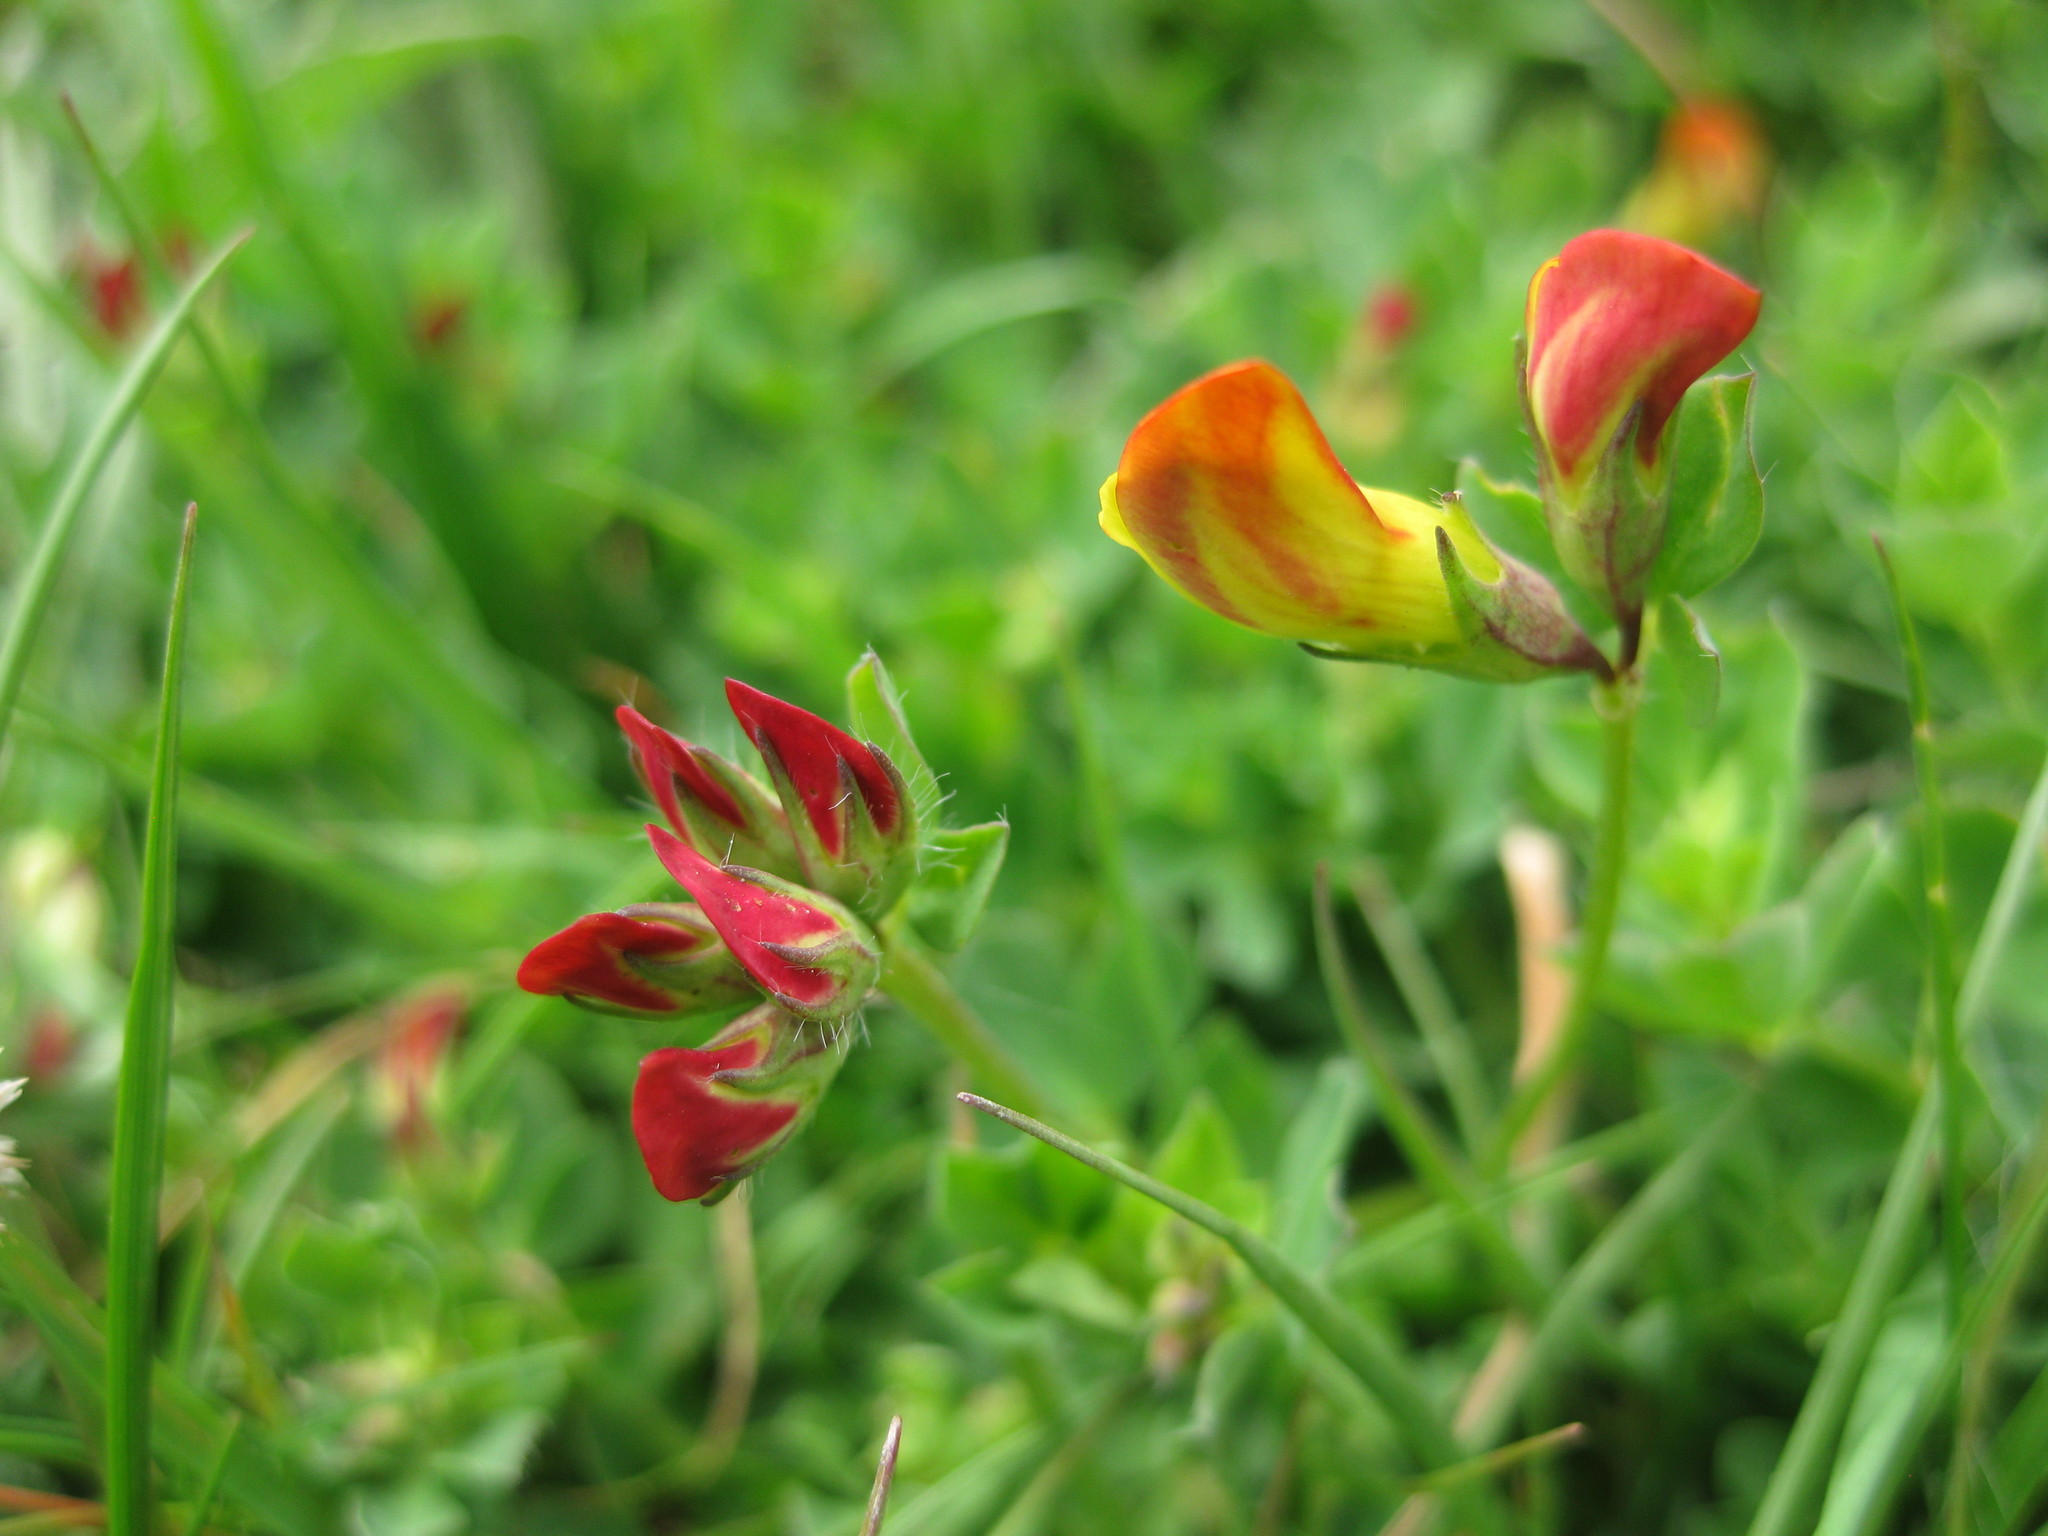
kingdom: Plantae
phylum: Tracheophyta
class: Magnoliopsida
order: Fabales
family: Fabaceae
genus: Lotus
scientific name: Lotus corniculatus
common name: Common bird's-foot-trefoil
